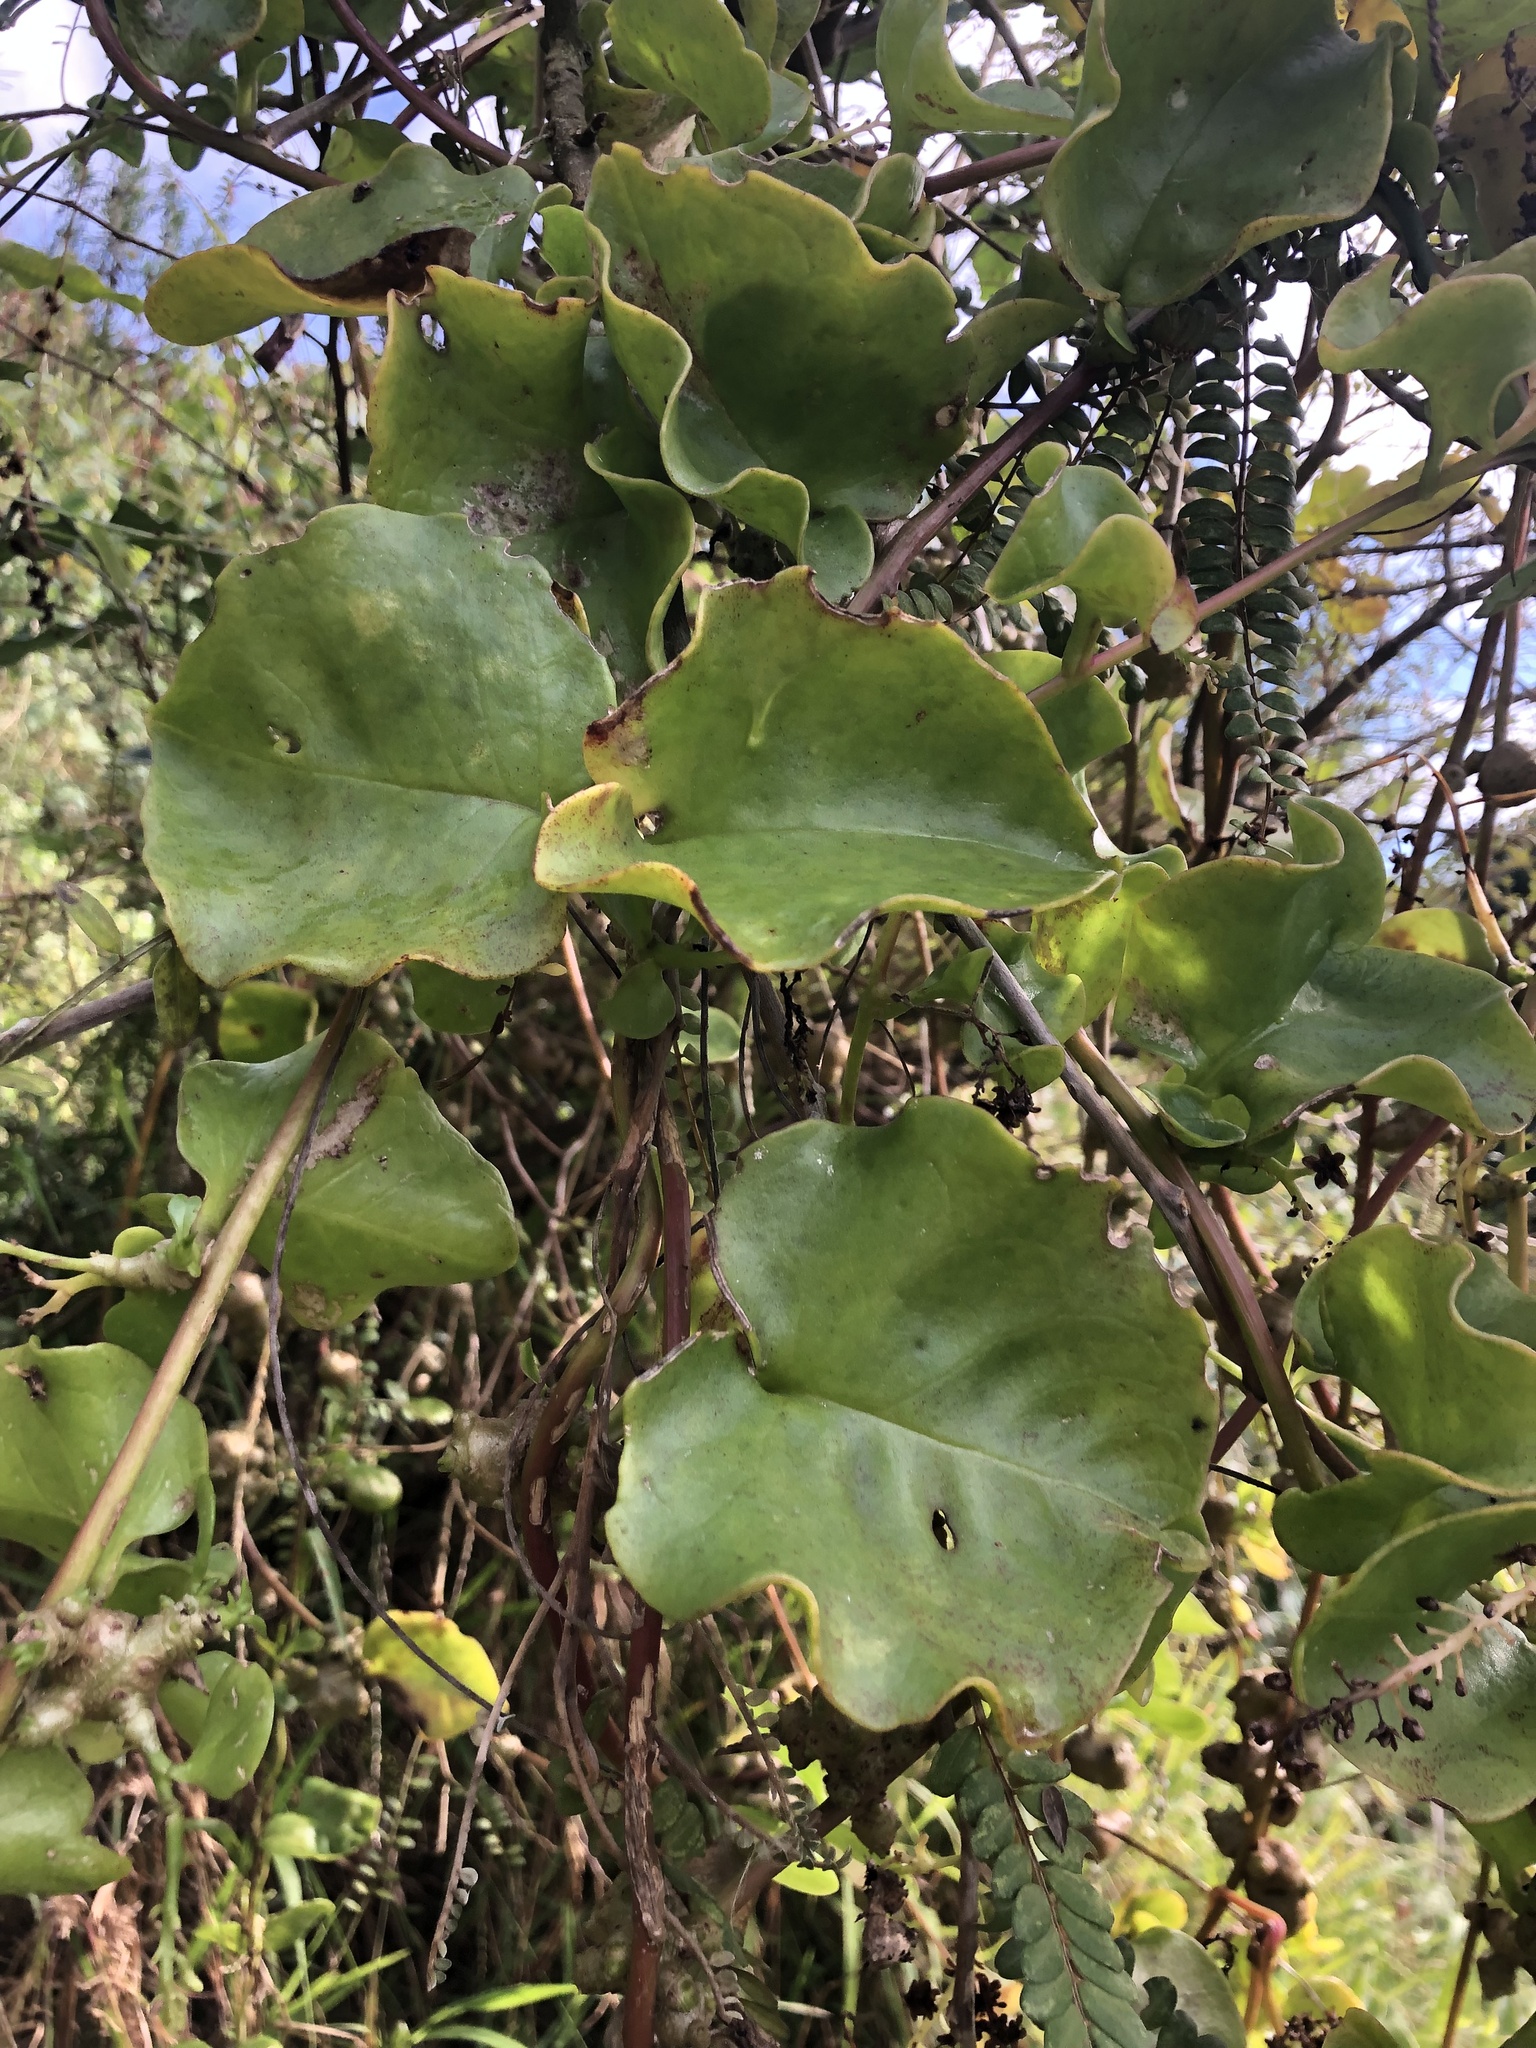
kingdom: Plantae
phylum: Tracheophyta
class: Magnoliopsida
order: Caryophyllales
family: Basellaceae
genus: Anredera
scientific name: Anredera cordifolia
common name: Heartleaf madeiravine
